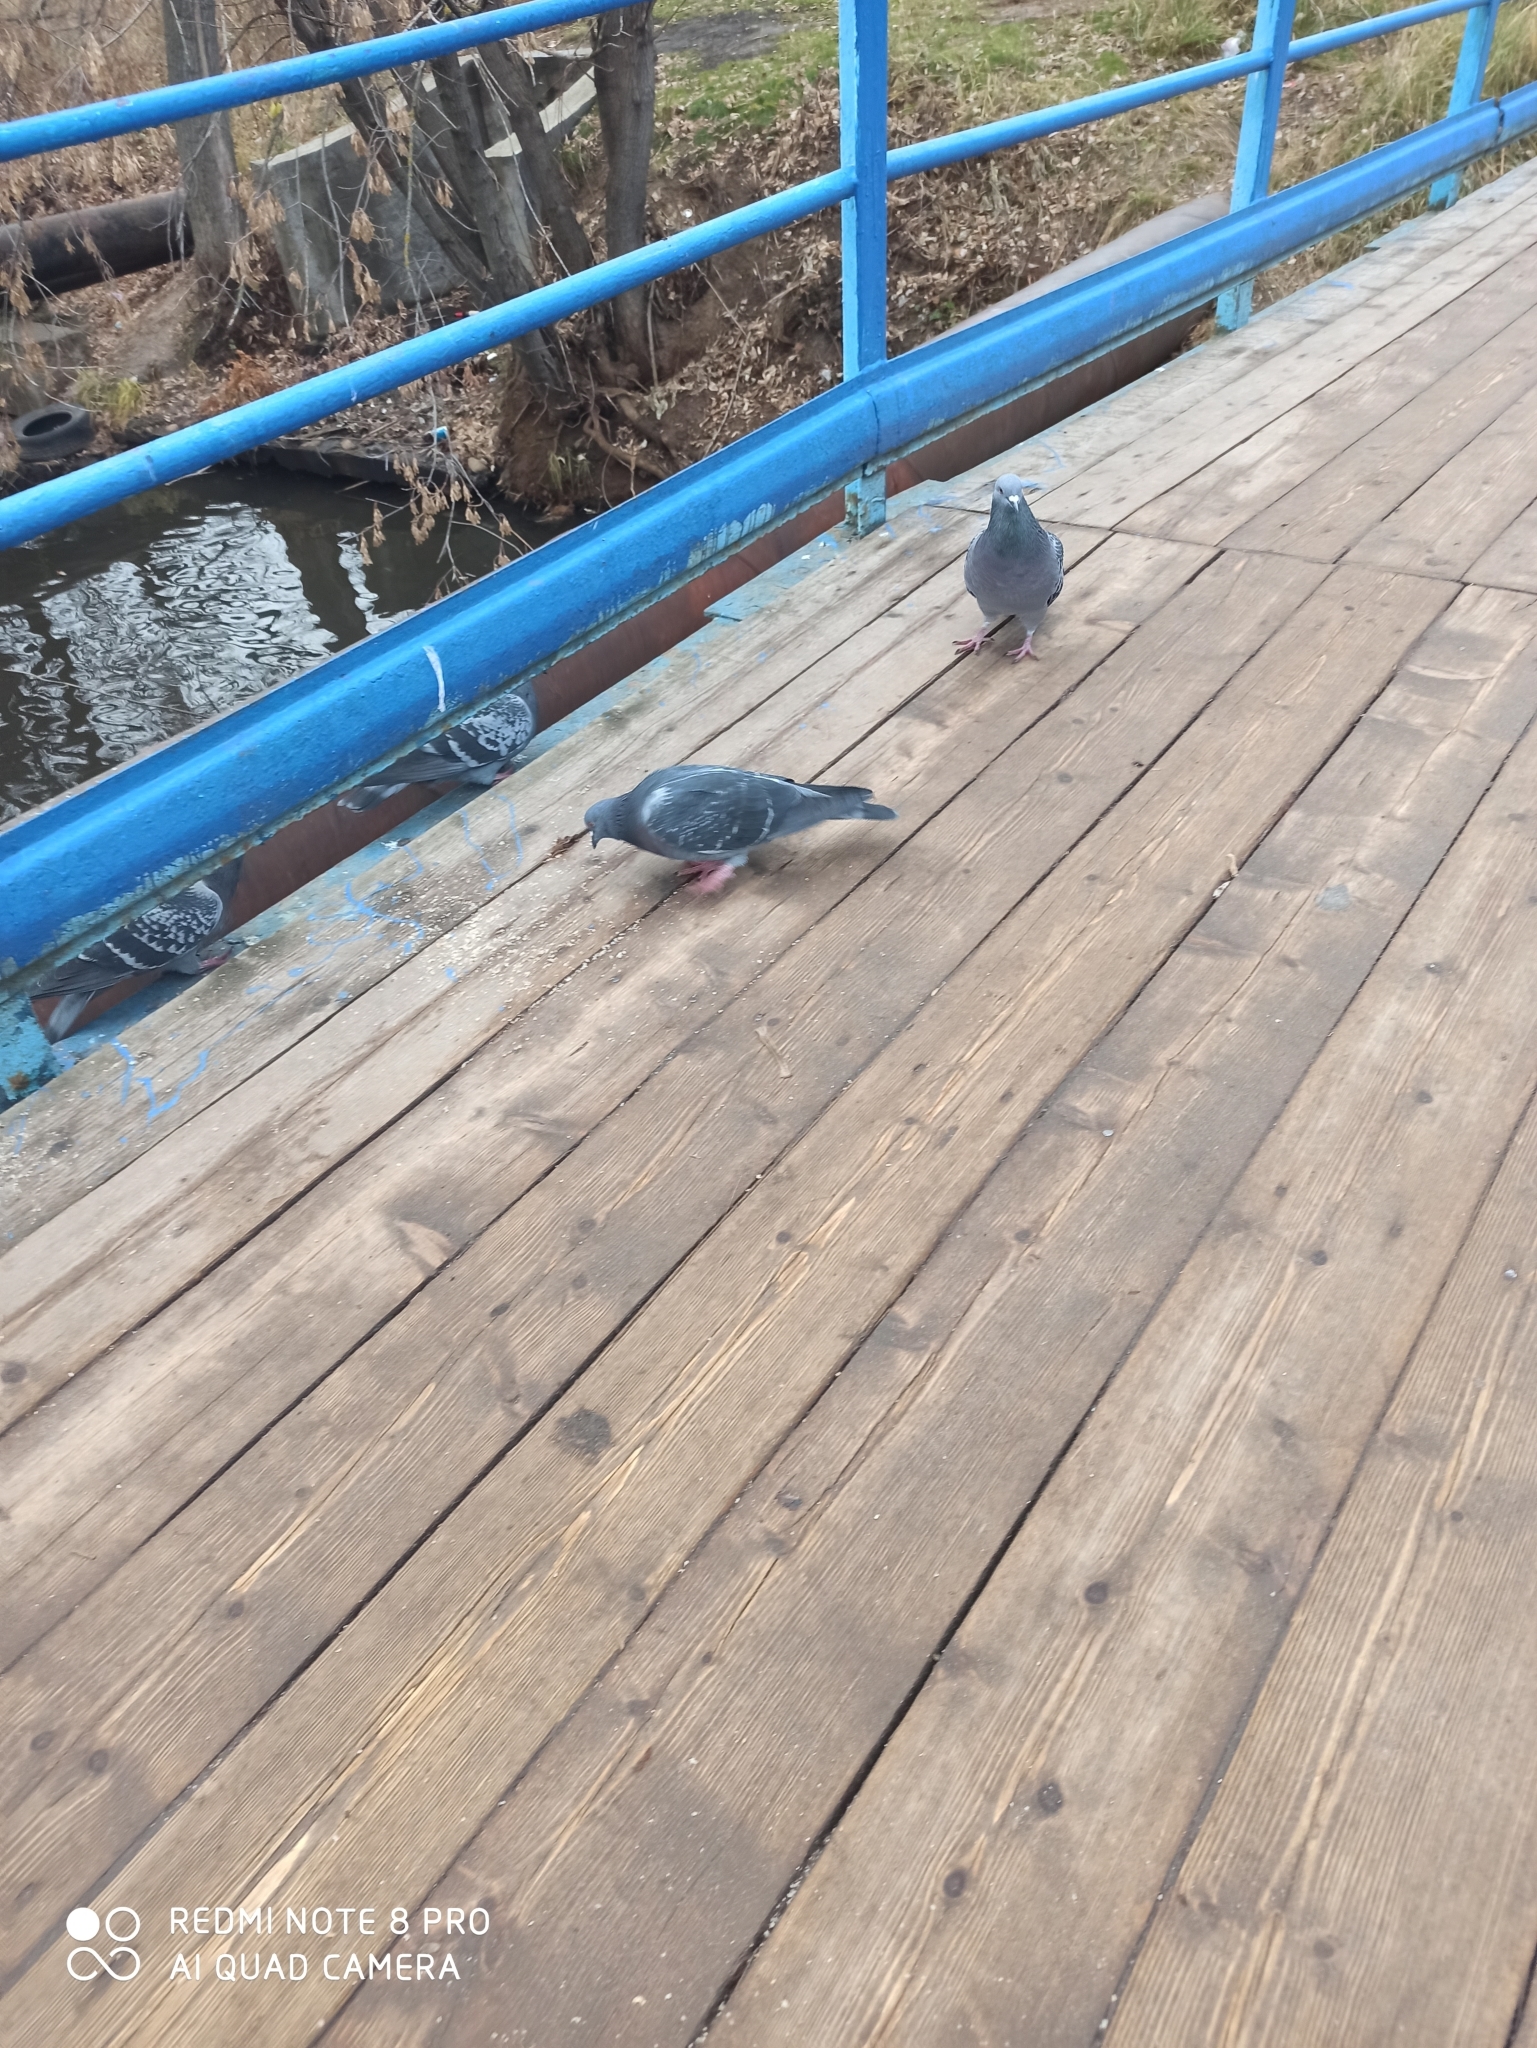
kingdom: Animalia
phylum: Chordata
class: Aves
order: Columbiformes
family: Columbidae
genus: Columba
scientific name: Columba livia
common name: Rock pigeon
